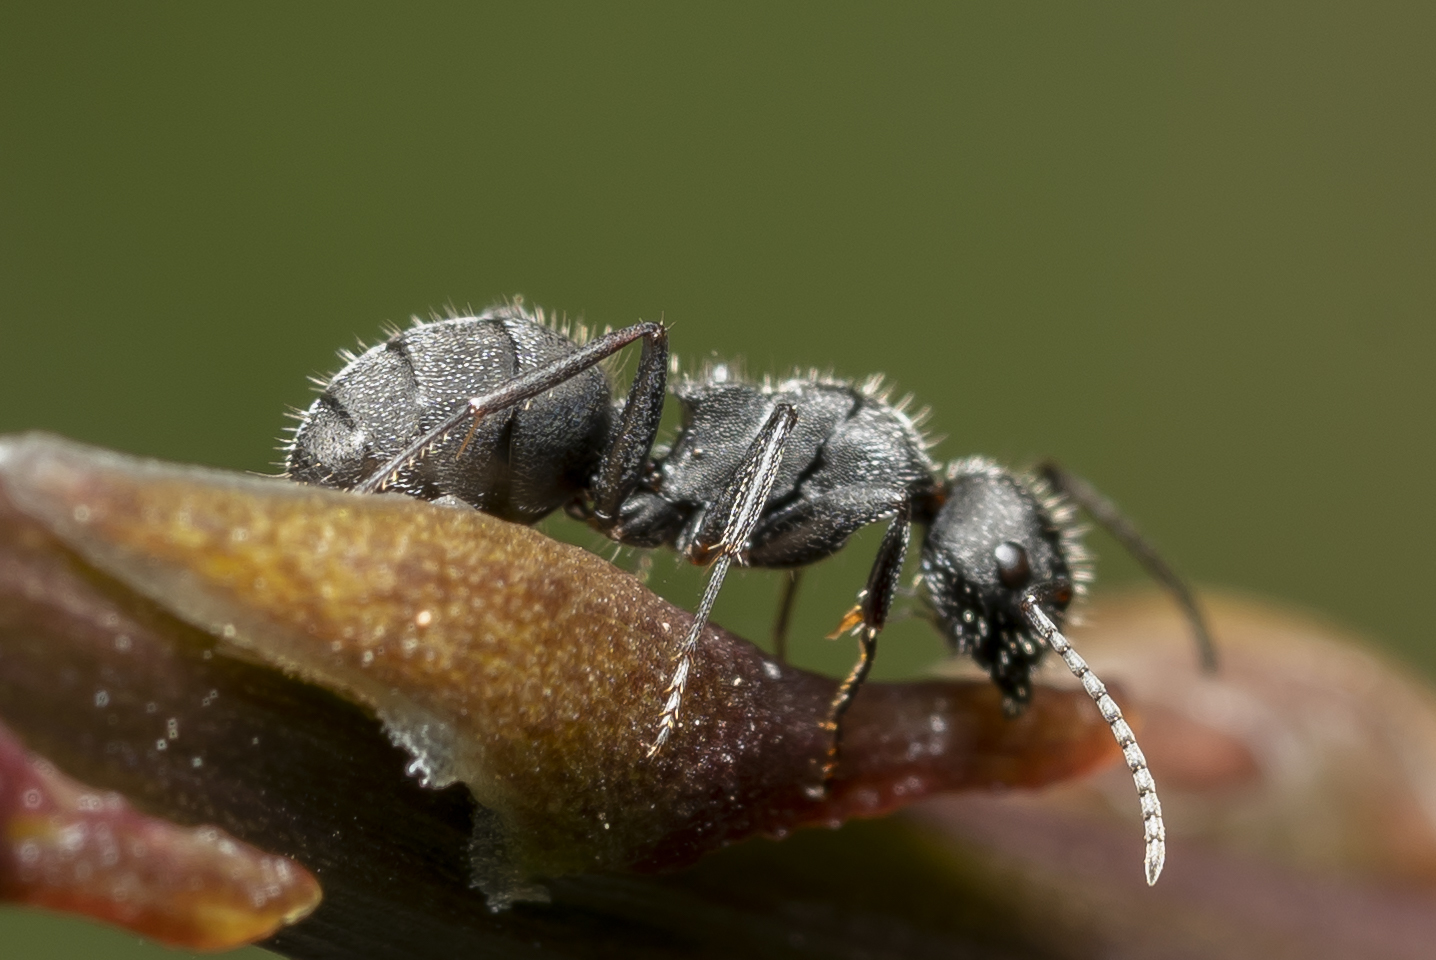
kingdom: Animalia
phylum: Arthropoda
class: Insecta
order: Hymenoptera
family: Formicidae
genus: Camponotus
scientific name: Camponotus kiesenwetteri
